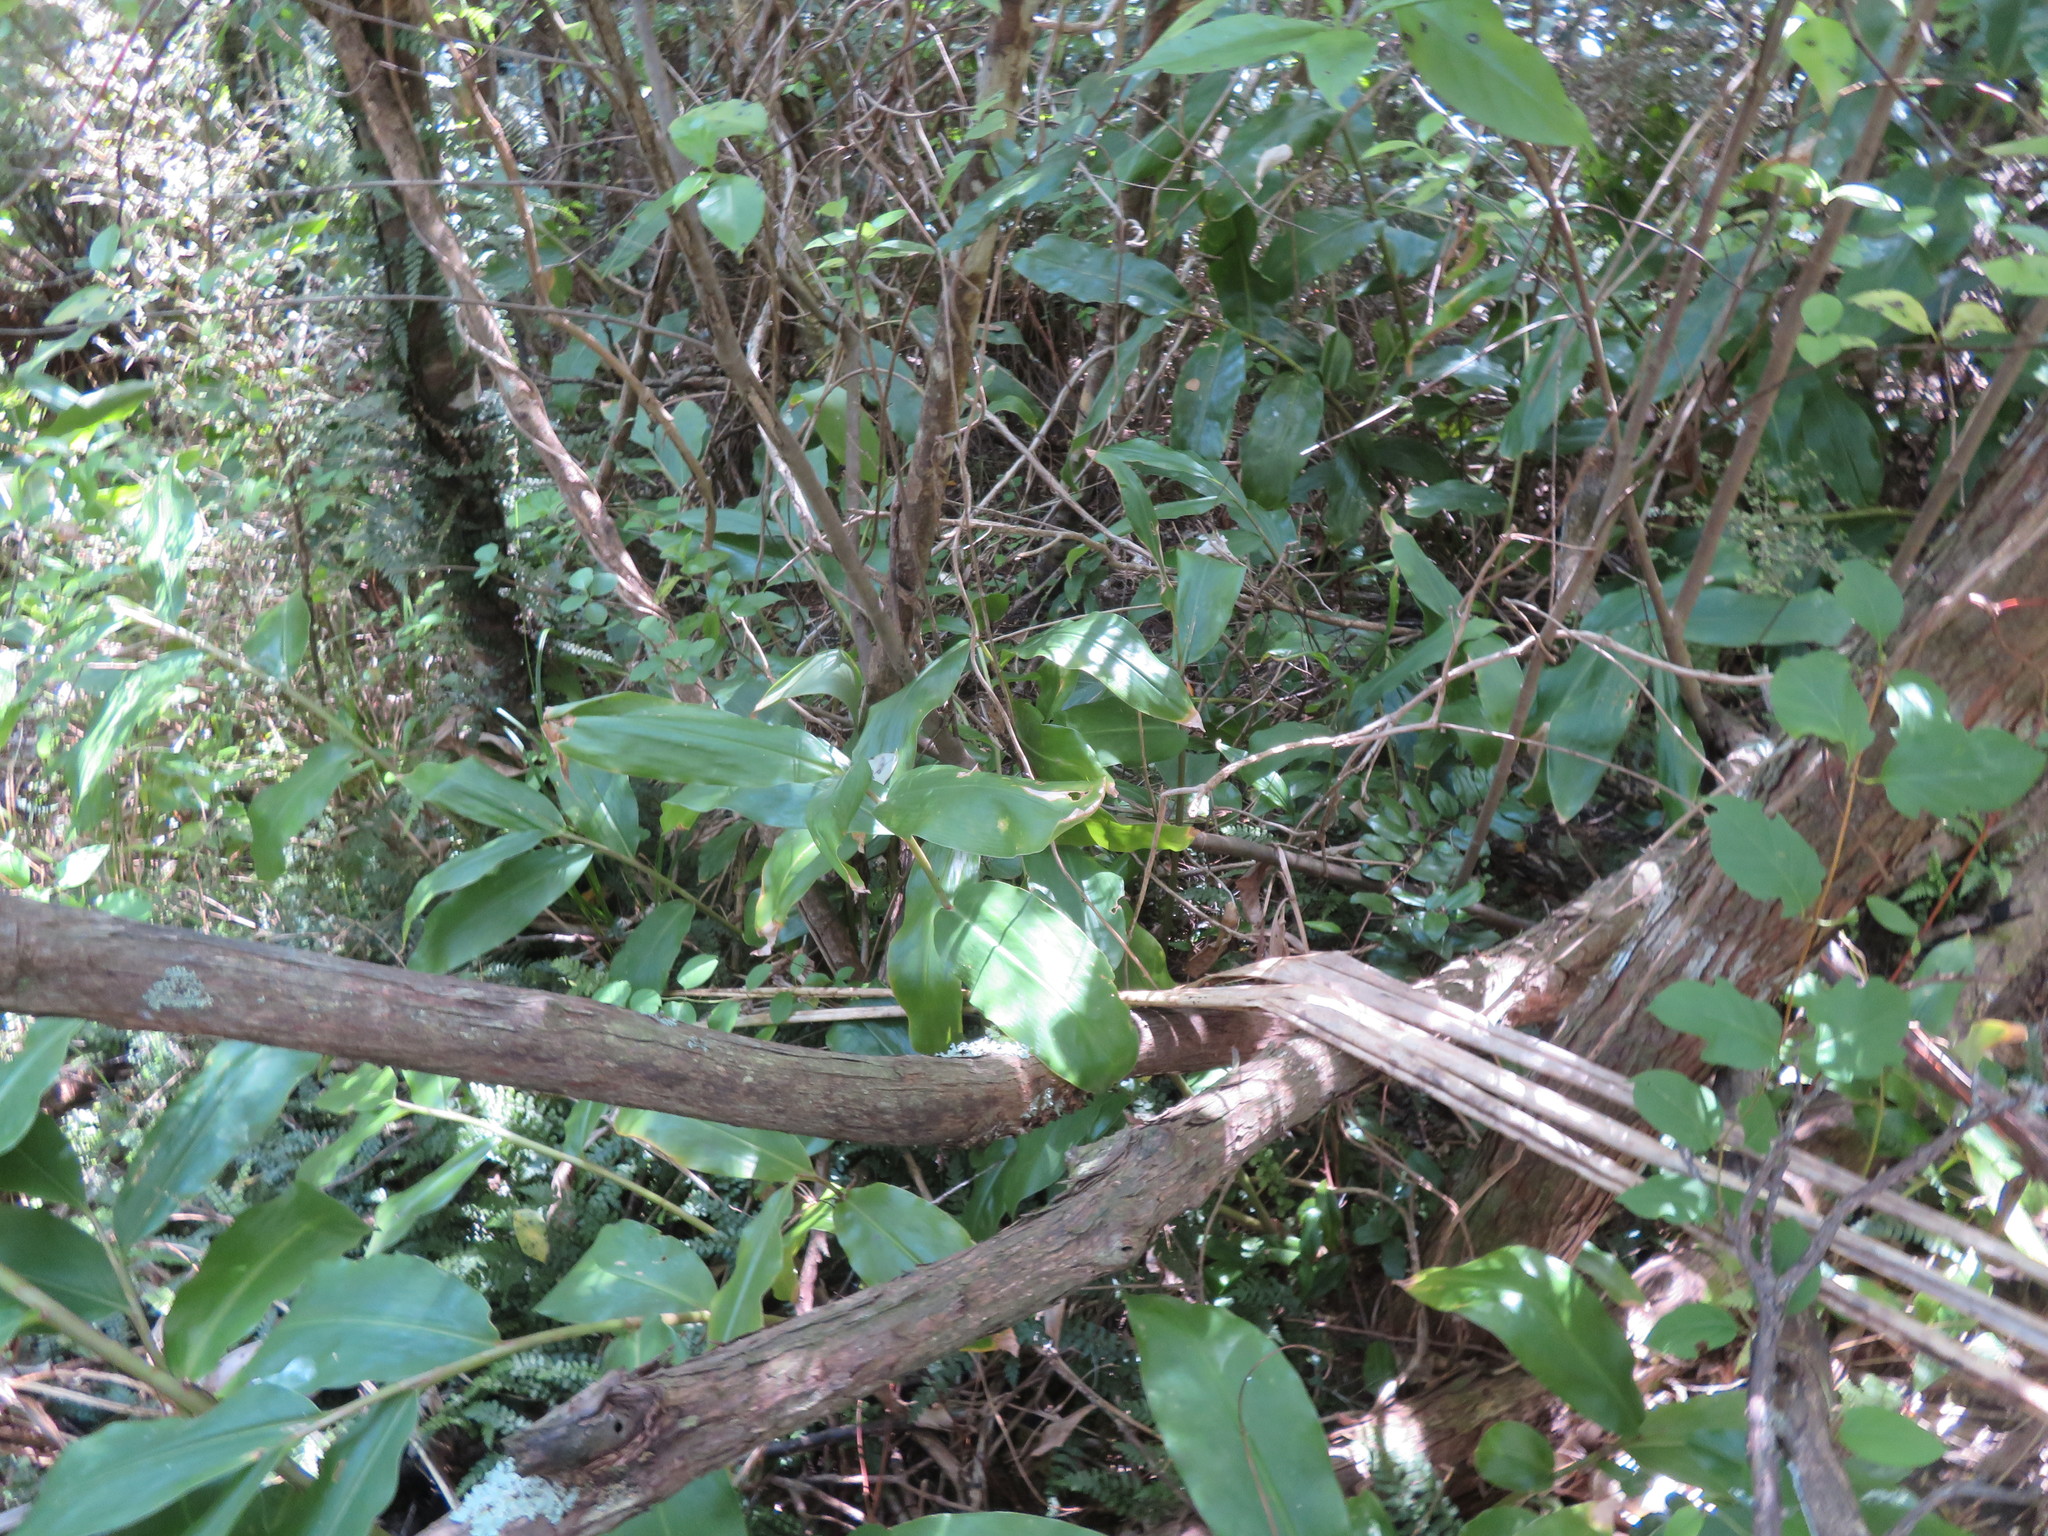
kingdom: Plantae
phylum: Tracheophyta
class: Magnoliopsida
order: Dipsacales
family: Caprifoliaceae
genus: Lonicera
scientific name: Lonicera japonica
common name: Japanese honeysuckle
